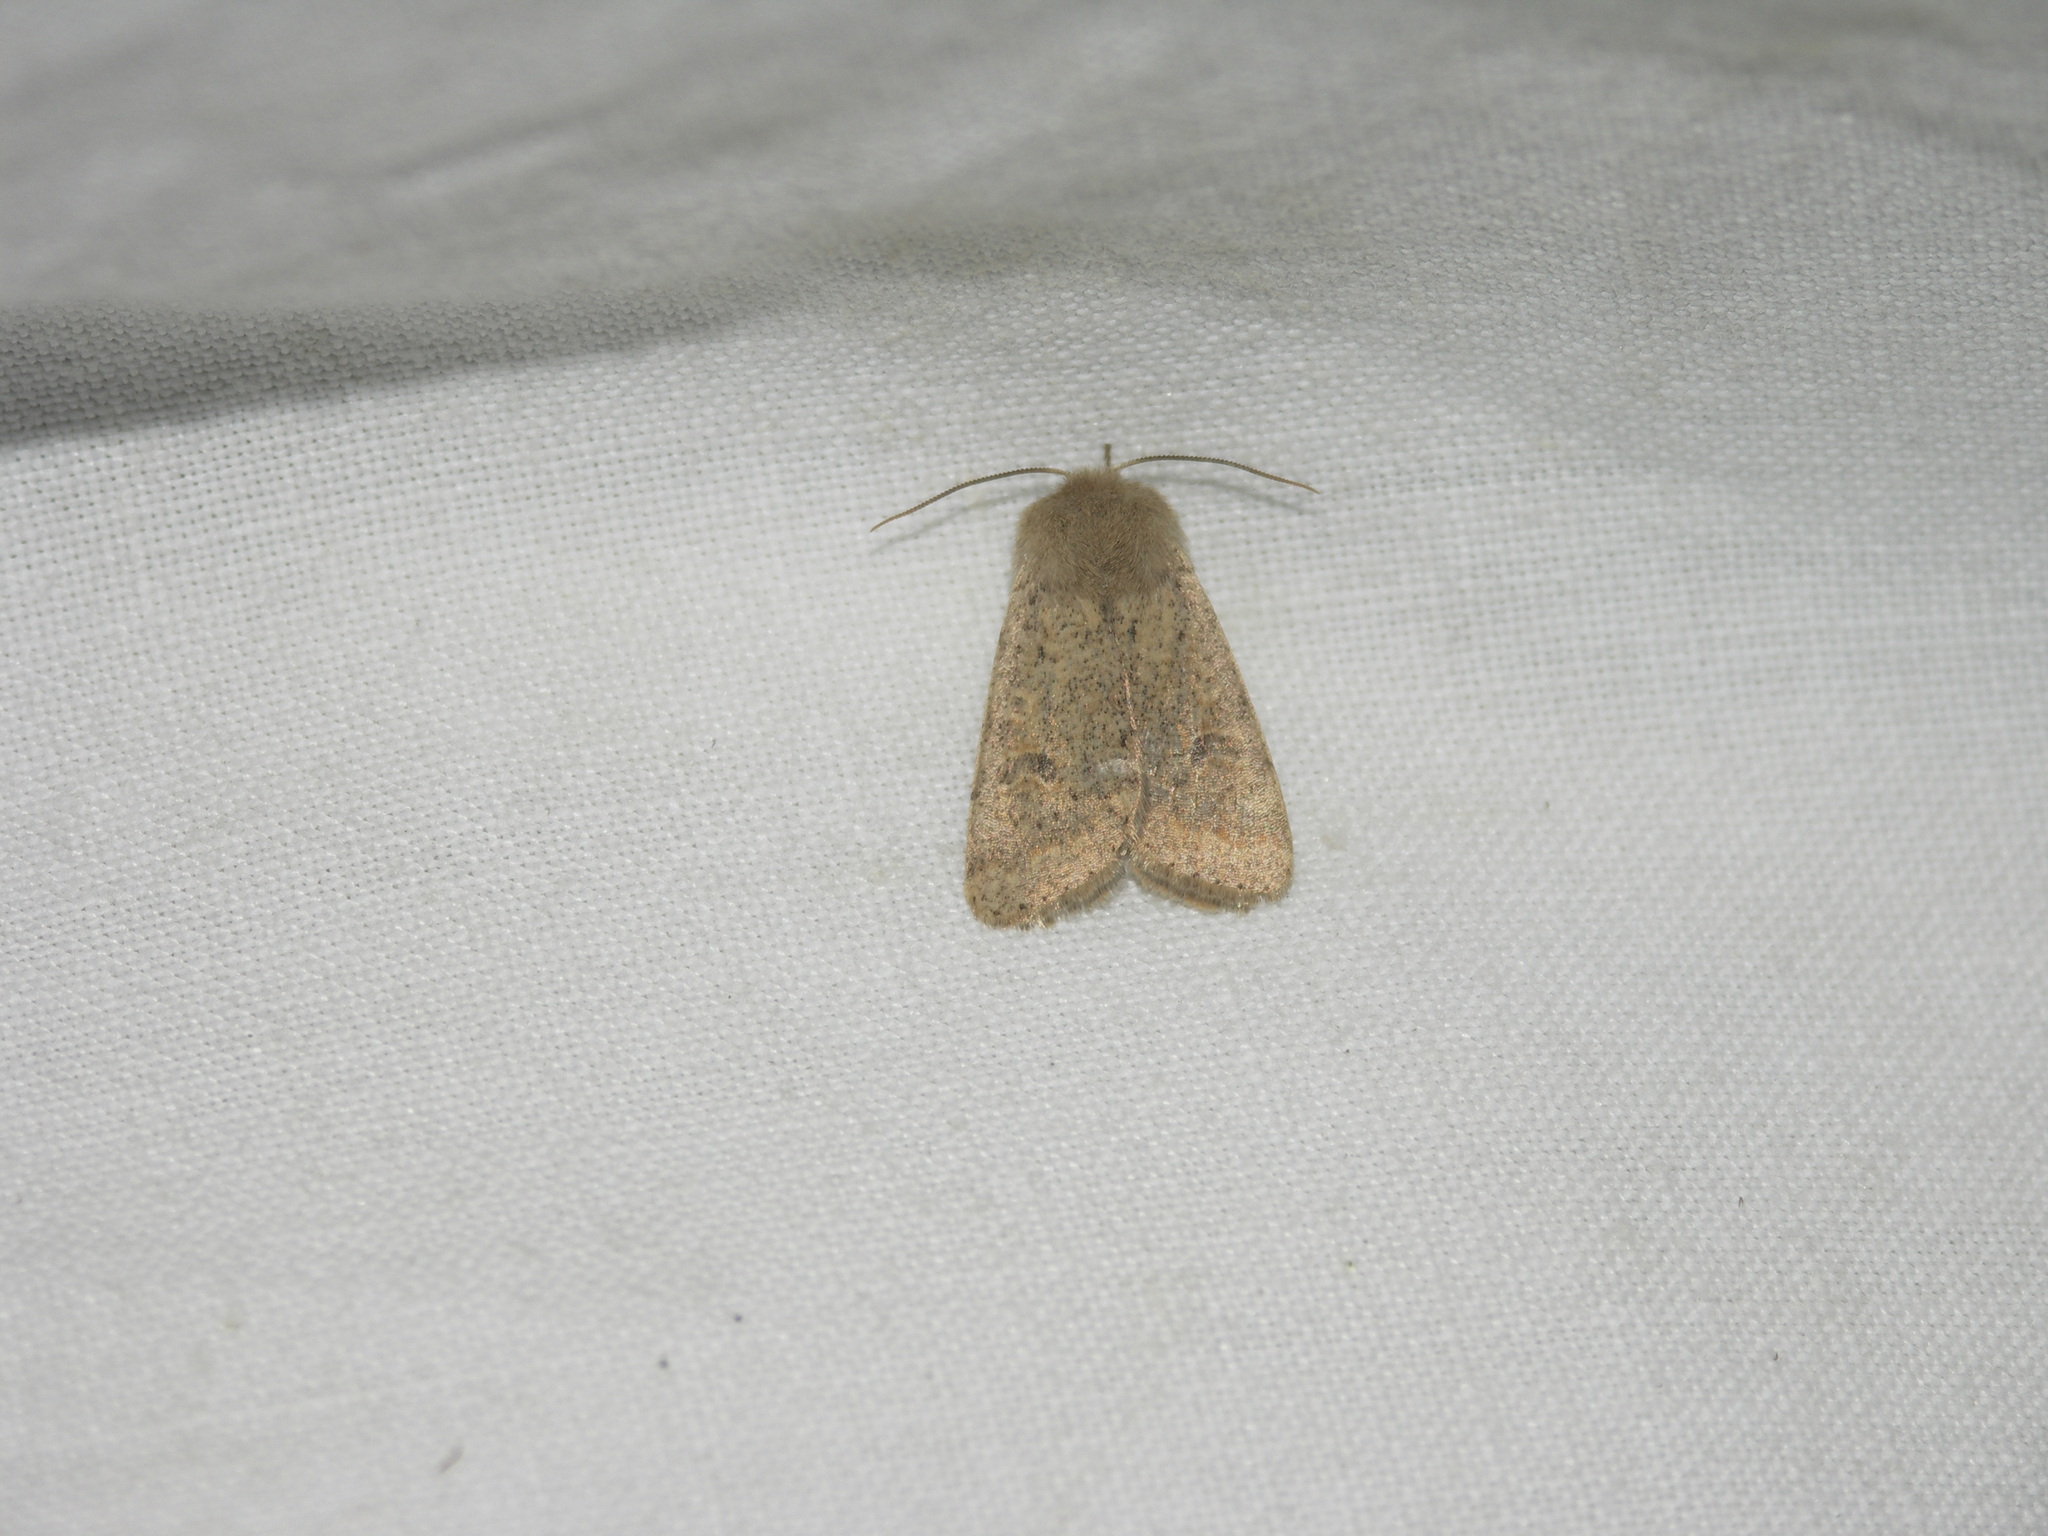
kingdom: Animalia
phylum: Arthropoda
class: Insecta
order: Lepidoptera
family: Noctuidae
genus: Orthosia
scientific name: Orthosia cruda
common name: Small quaker
